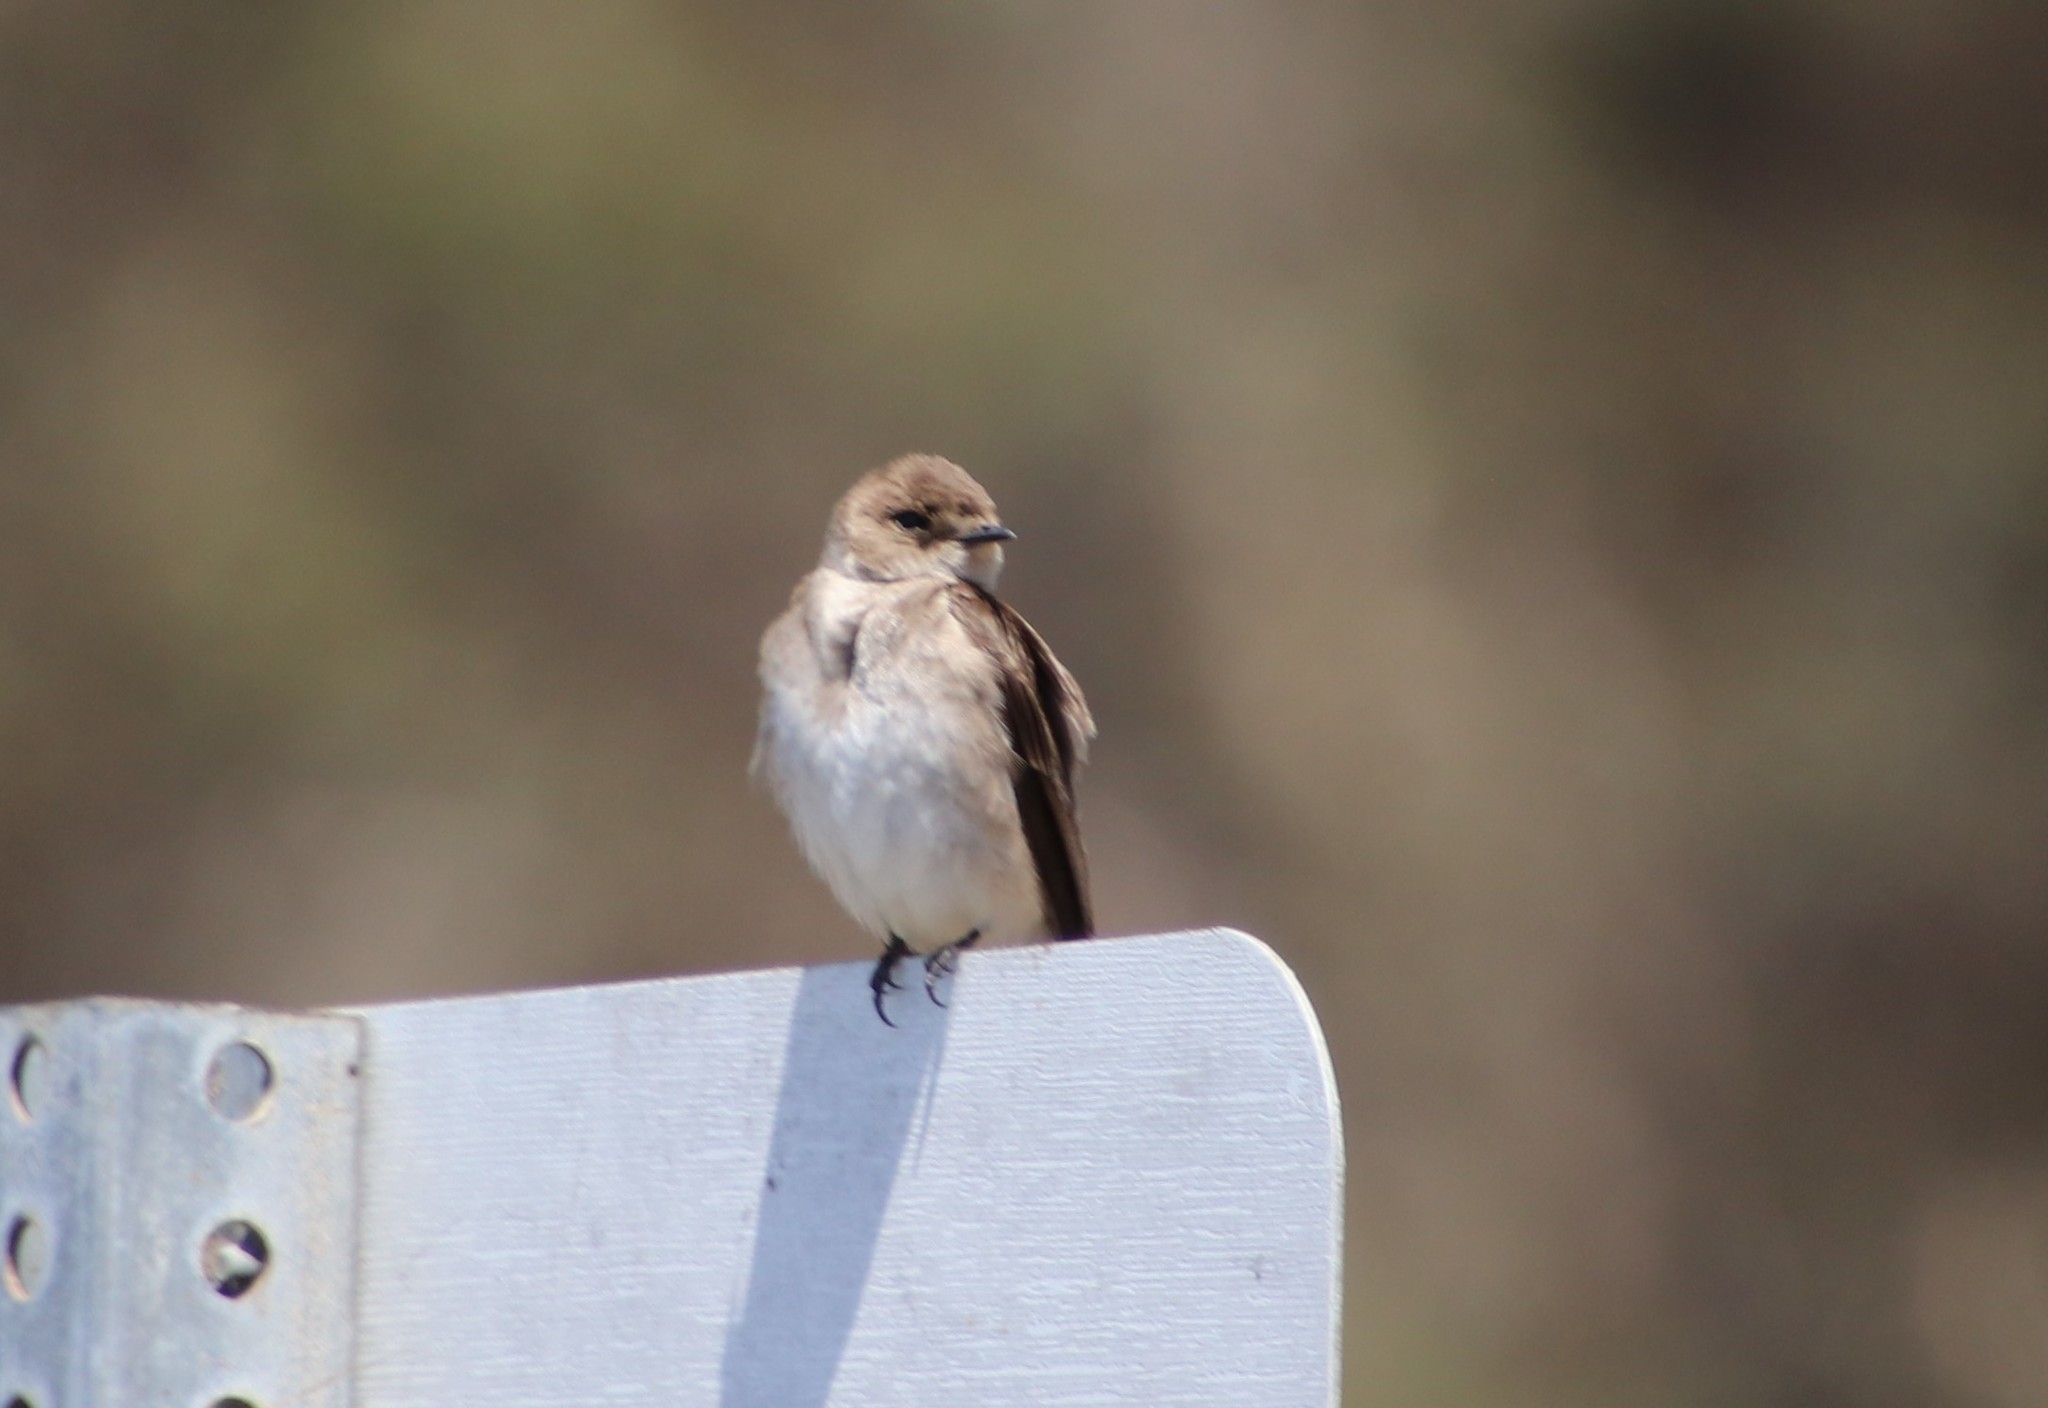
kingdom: Animalia
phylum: Chordata
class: Aves
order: Passeriformes
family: Hirundinidae
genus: Stelgidopteryx
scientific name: Stelgidopteryx serripennis
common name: Northern rough-winged swallow
